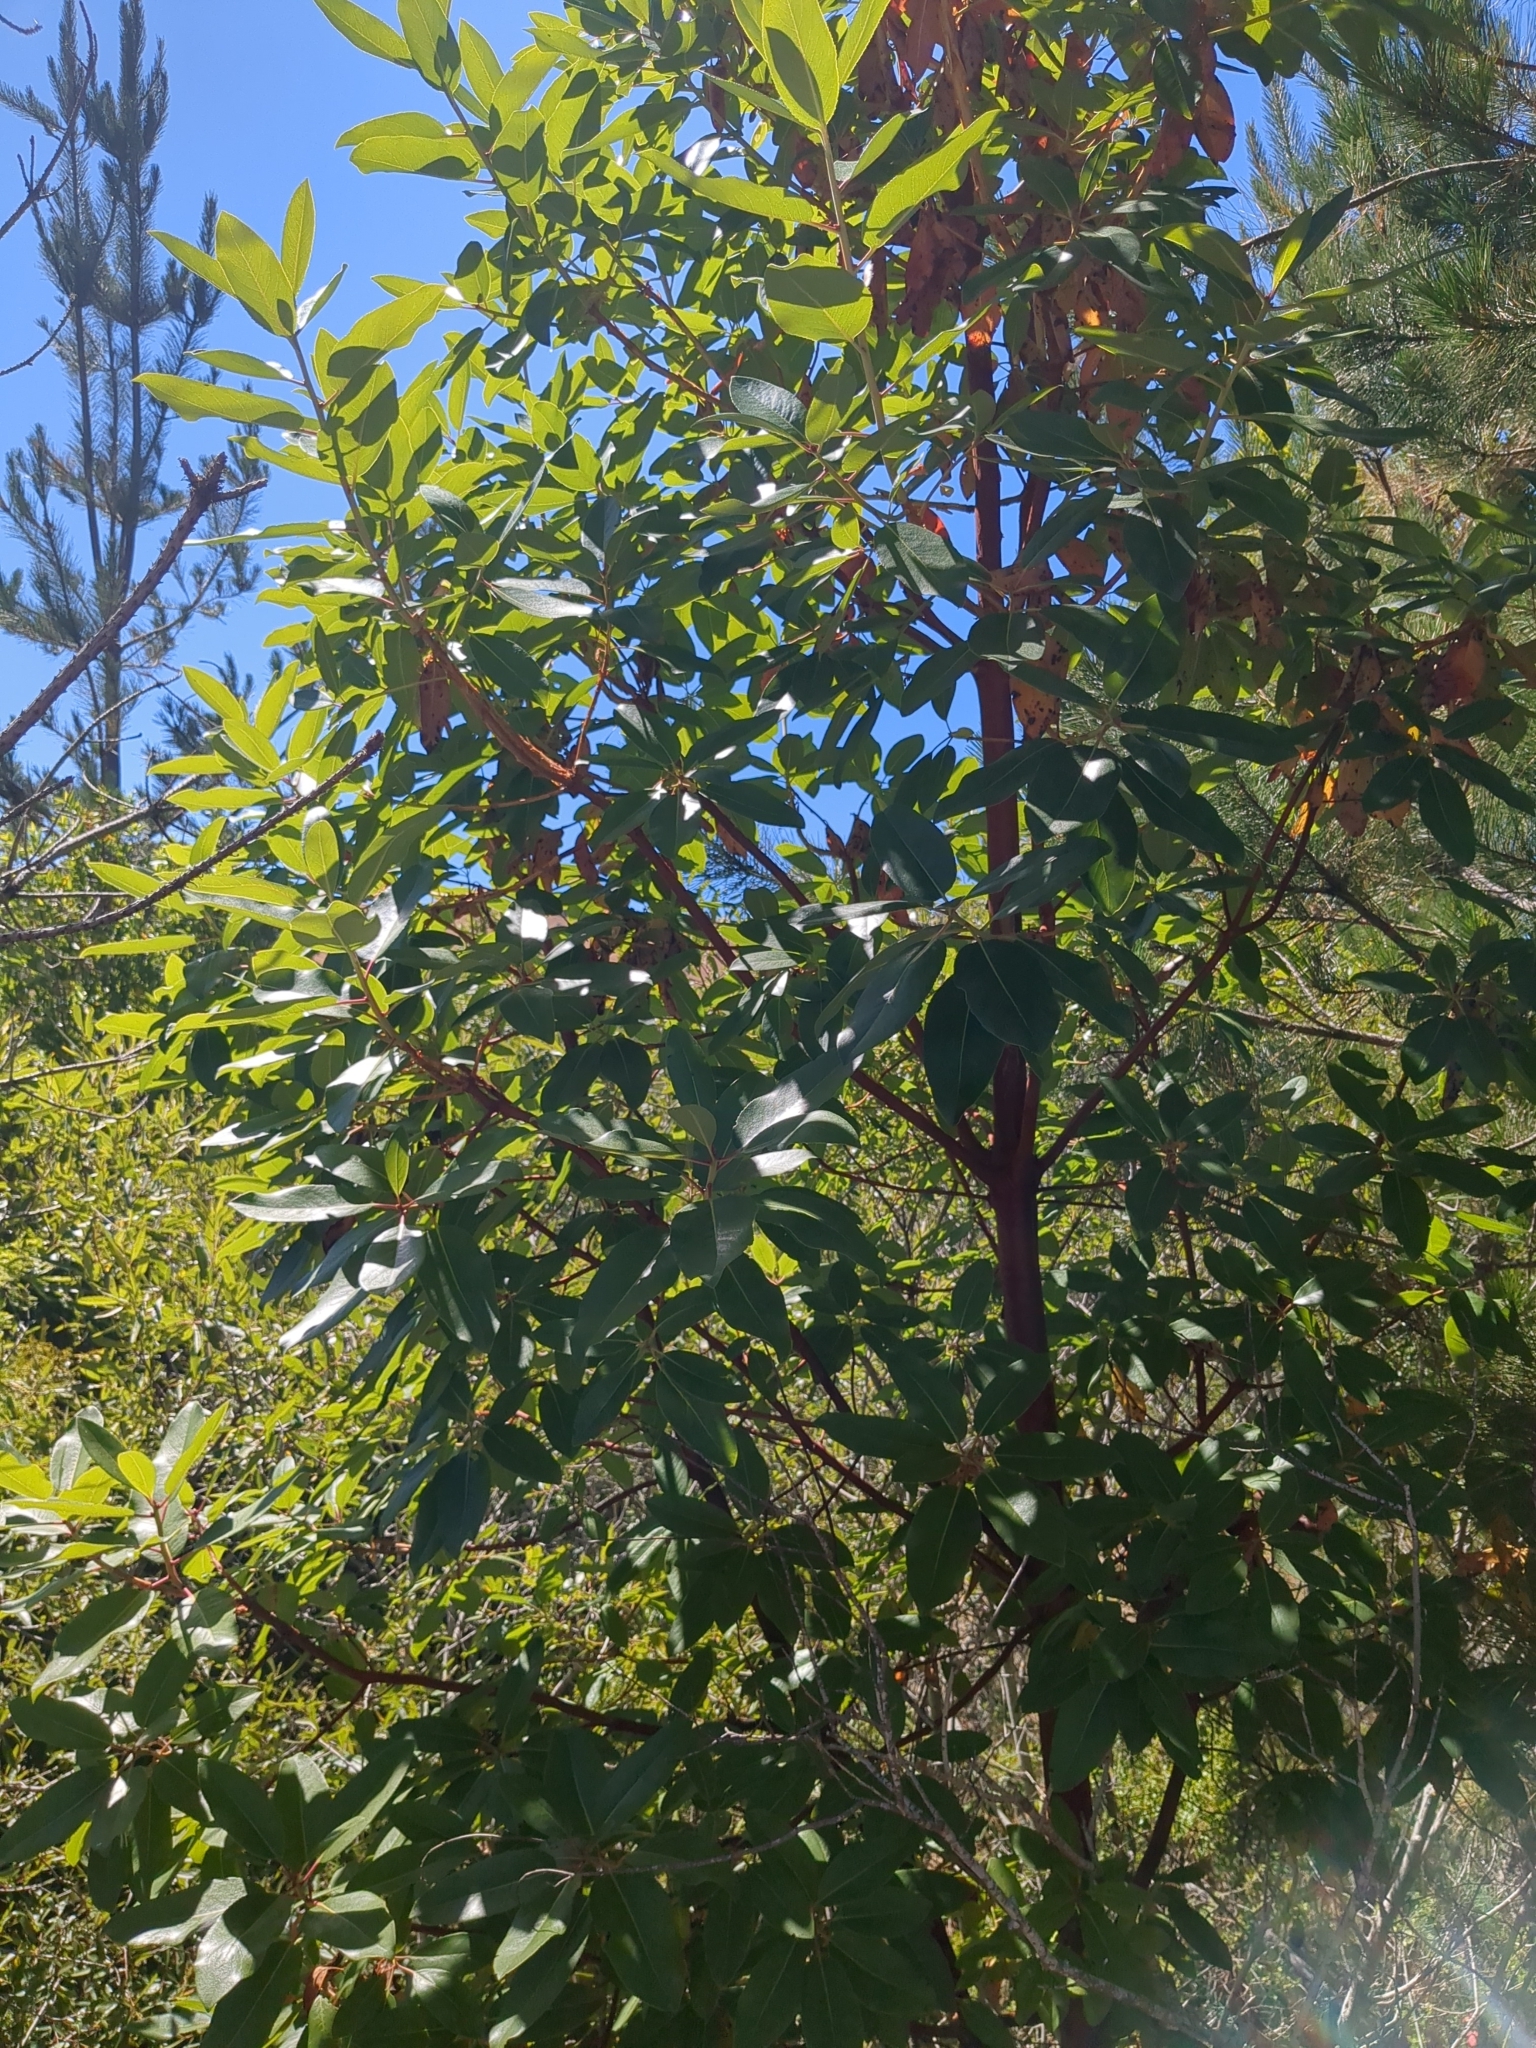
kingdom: Plantae
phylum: Tracheophyta
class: Magnoliopsida
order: Ericales
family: Ericaceae
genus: Arbutus
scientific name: Arbutus menziesii
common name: Pacific madrone
